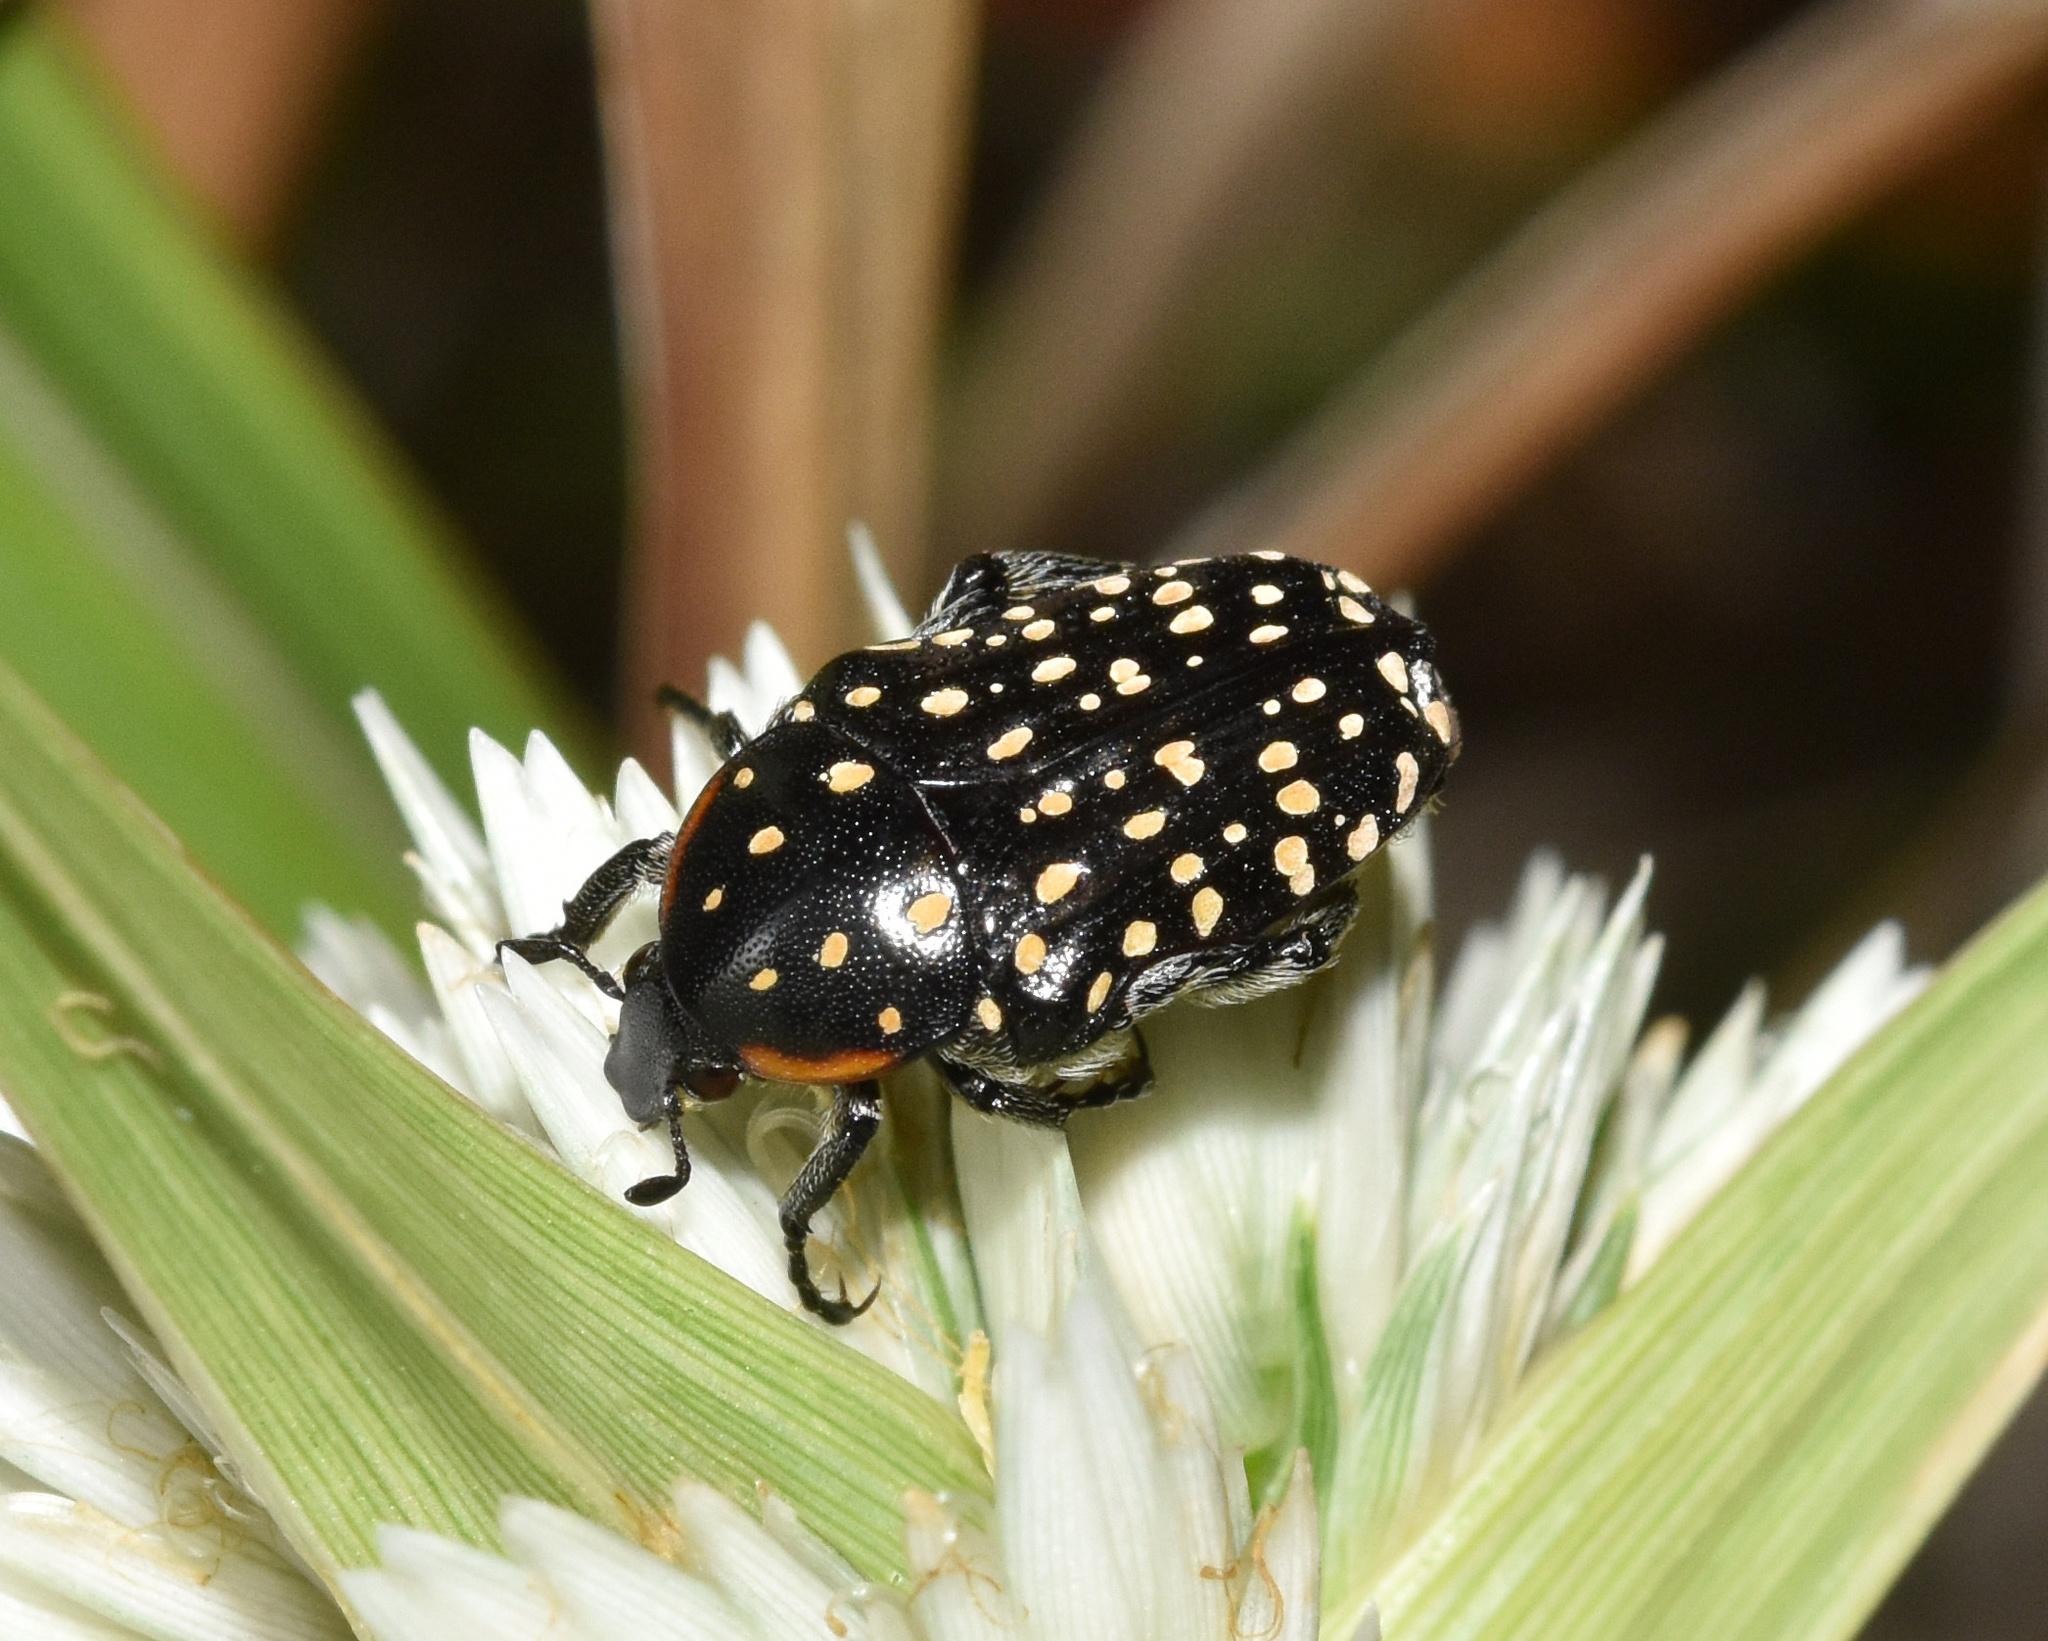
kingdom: Animalia
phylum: Arthropoda
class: Insecta
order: Coleoptera
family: Scarabaeidae
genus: Oxythyrea
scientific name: Oxythyrea
